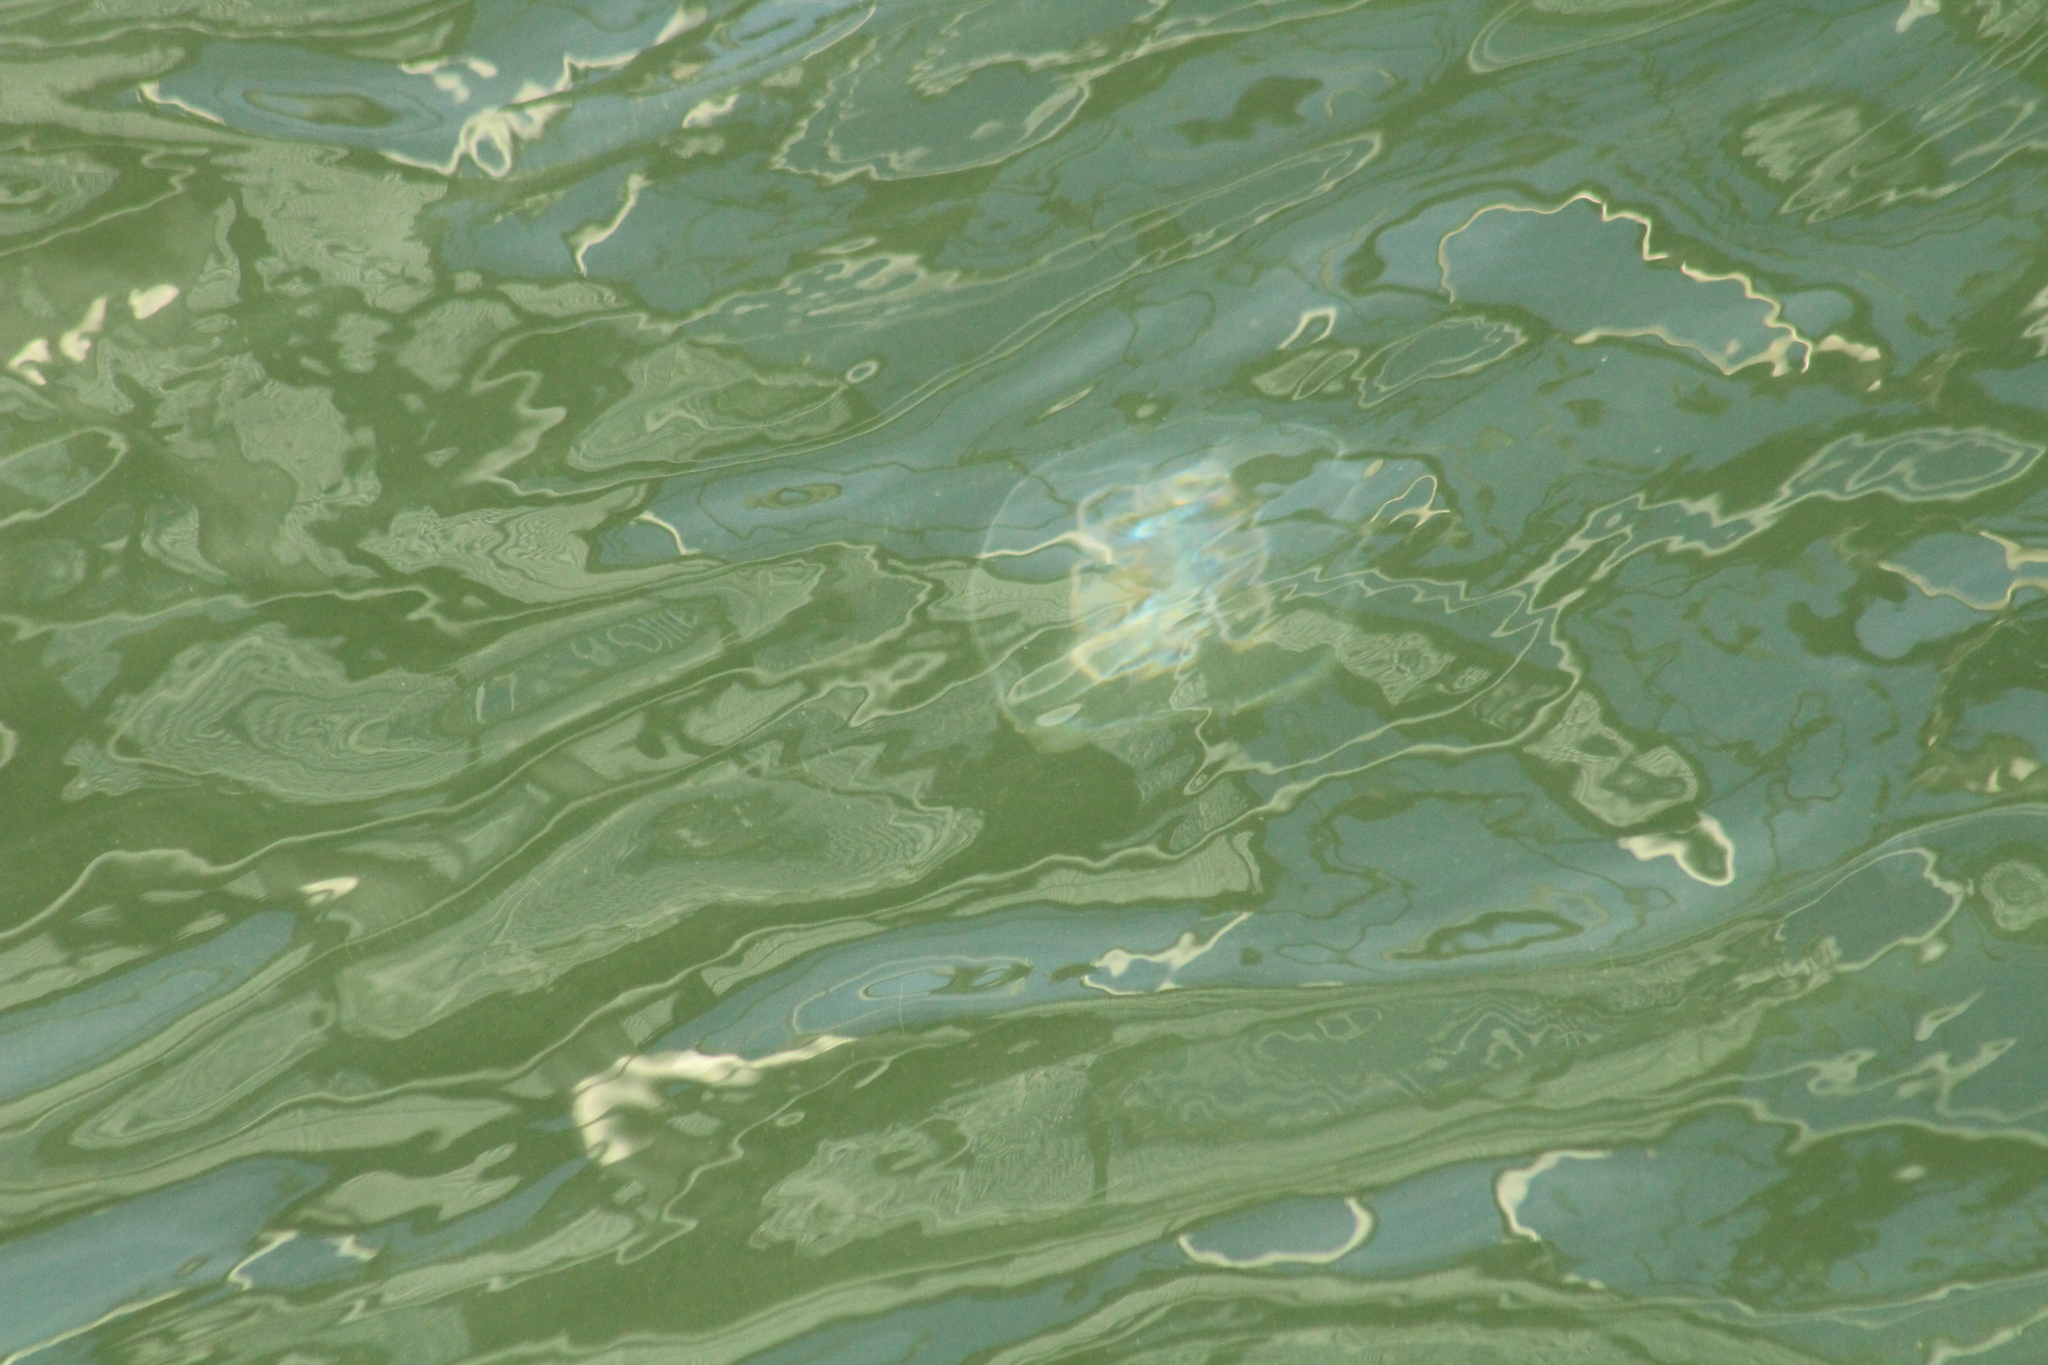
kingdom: Animalia
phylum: Cnidaria
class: Scyphozoa
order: Semaeostomeae
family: Ulmaridae
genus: Aurelia
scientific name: Aurelia aurita
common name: Moon jellyfish
